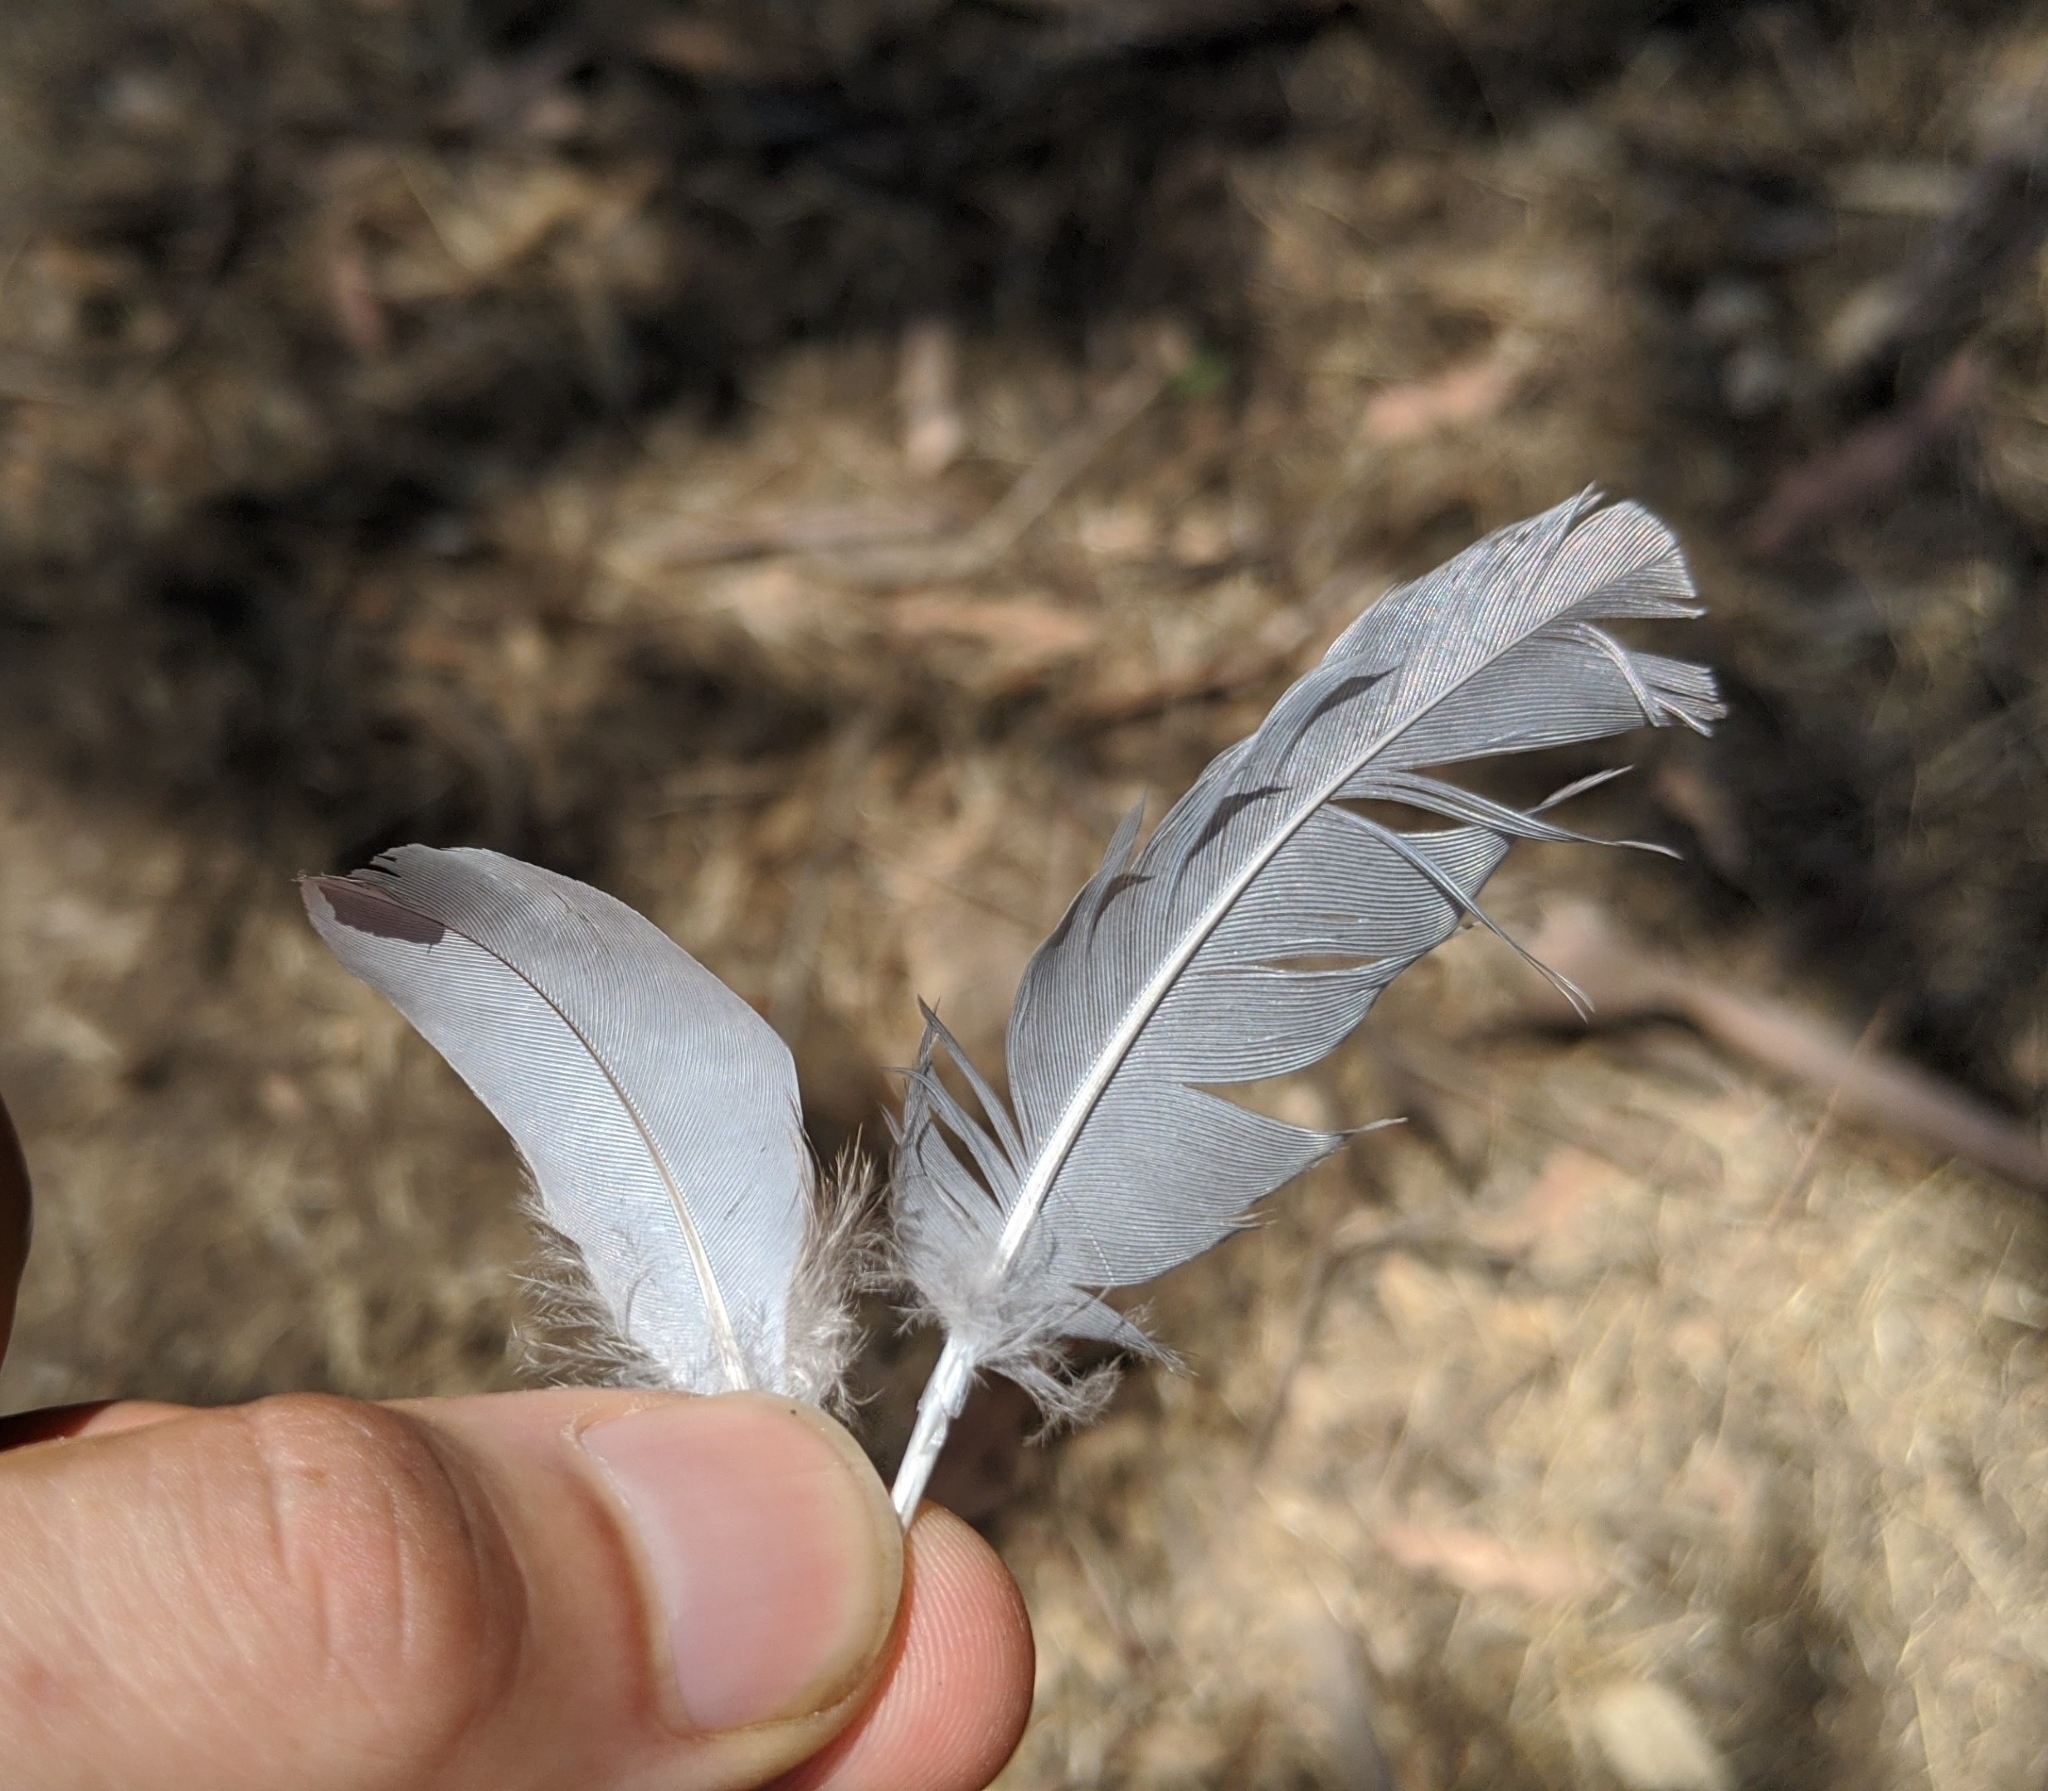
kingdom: Animalia
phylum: Chordata
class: Aves
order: Columbiformes
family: Columbidae
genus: Zenaida
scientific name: Zenaida macroura
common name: Mourning dove
